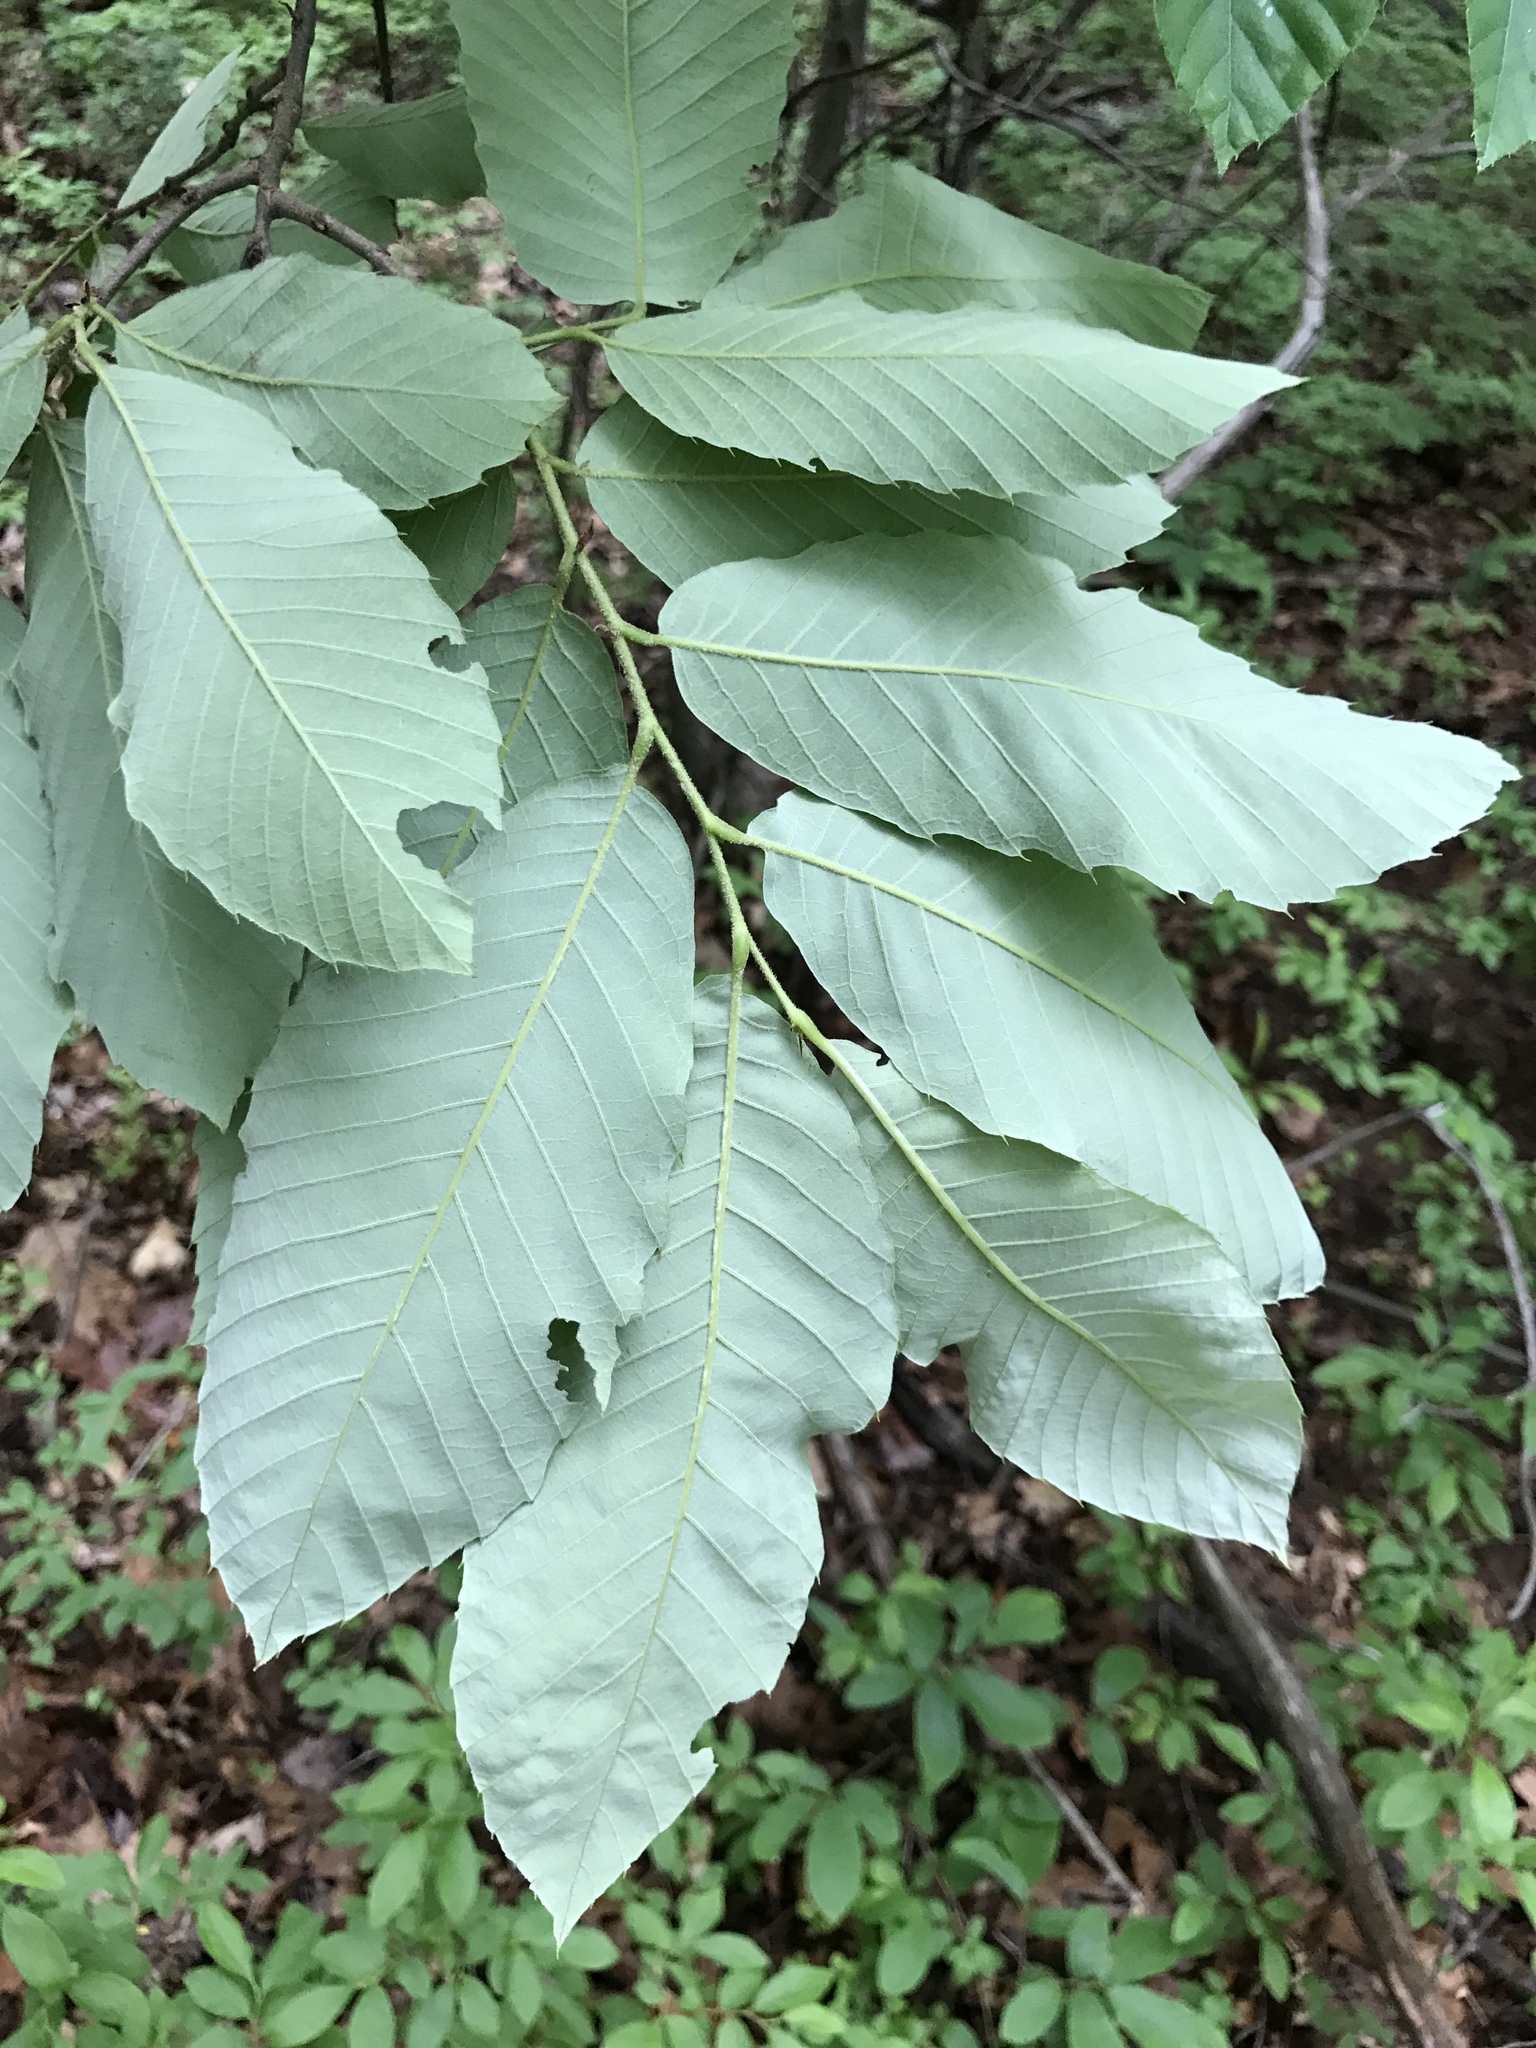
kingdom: Plantae
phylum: Tracheophyta
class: Magnoliopsida
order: Fagales
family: Fagaceae
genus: Castanea
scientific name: Castanea pumila
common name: Chinkapin
